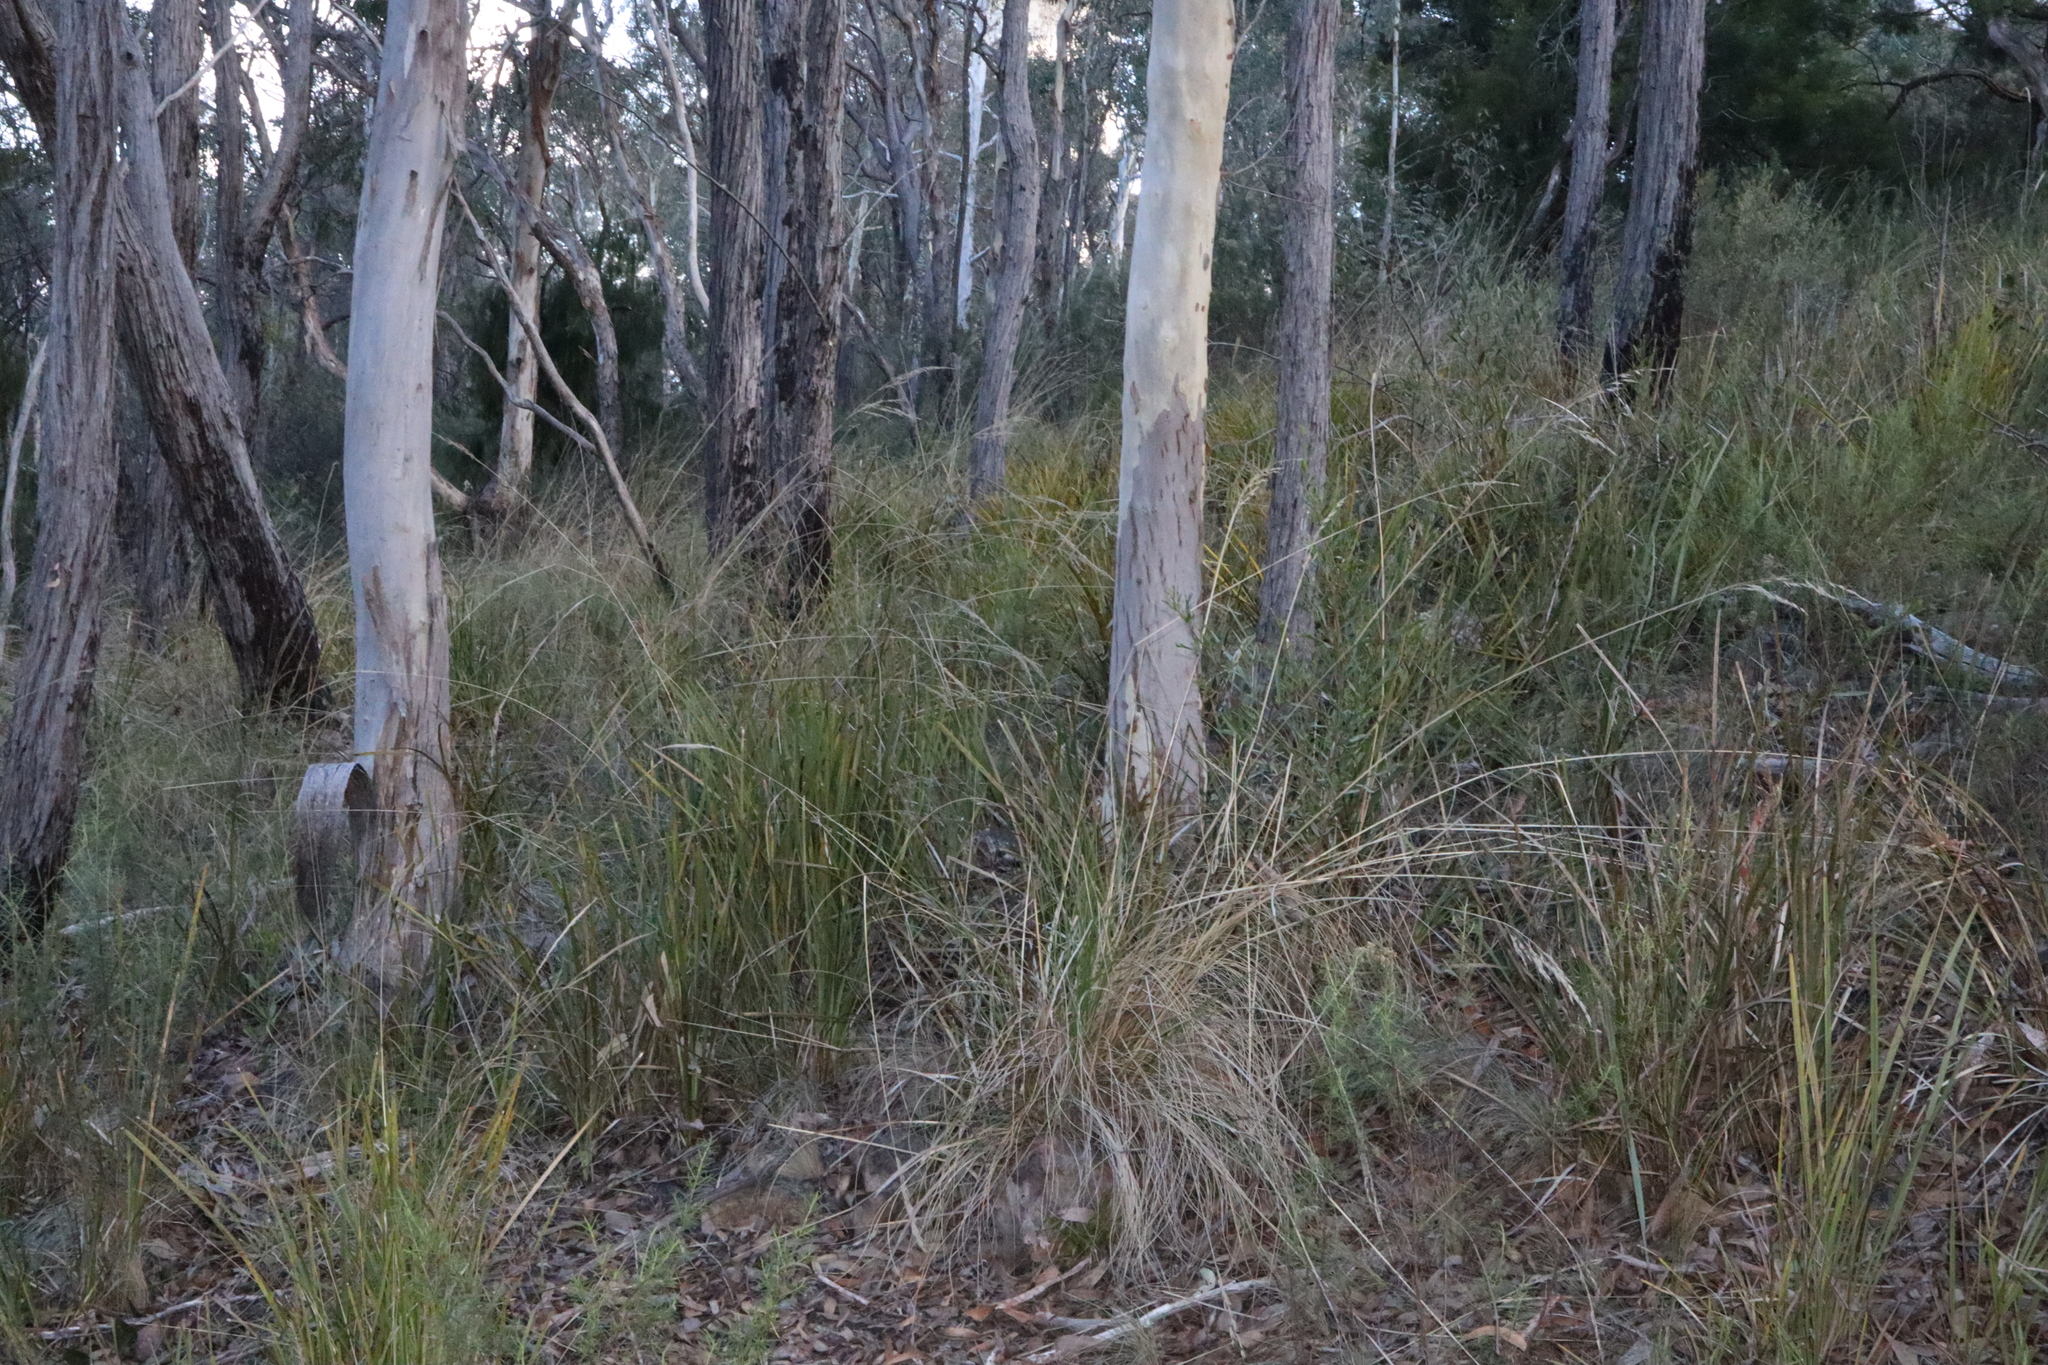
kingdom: Plantae
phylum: Tracheophyta
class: Liliopsida
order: Asparagales
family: Asparagaceae
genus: Lomandra
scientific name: Lomandra longifolia
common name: Longleaf mat-rush
